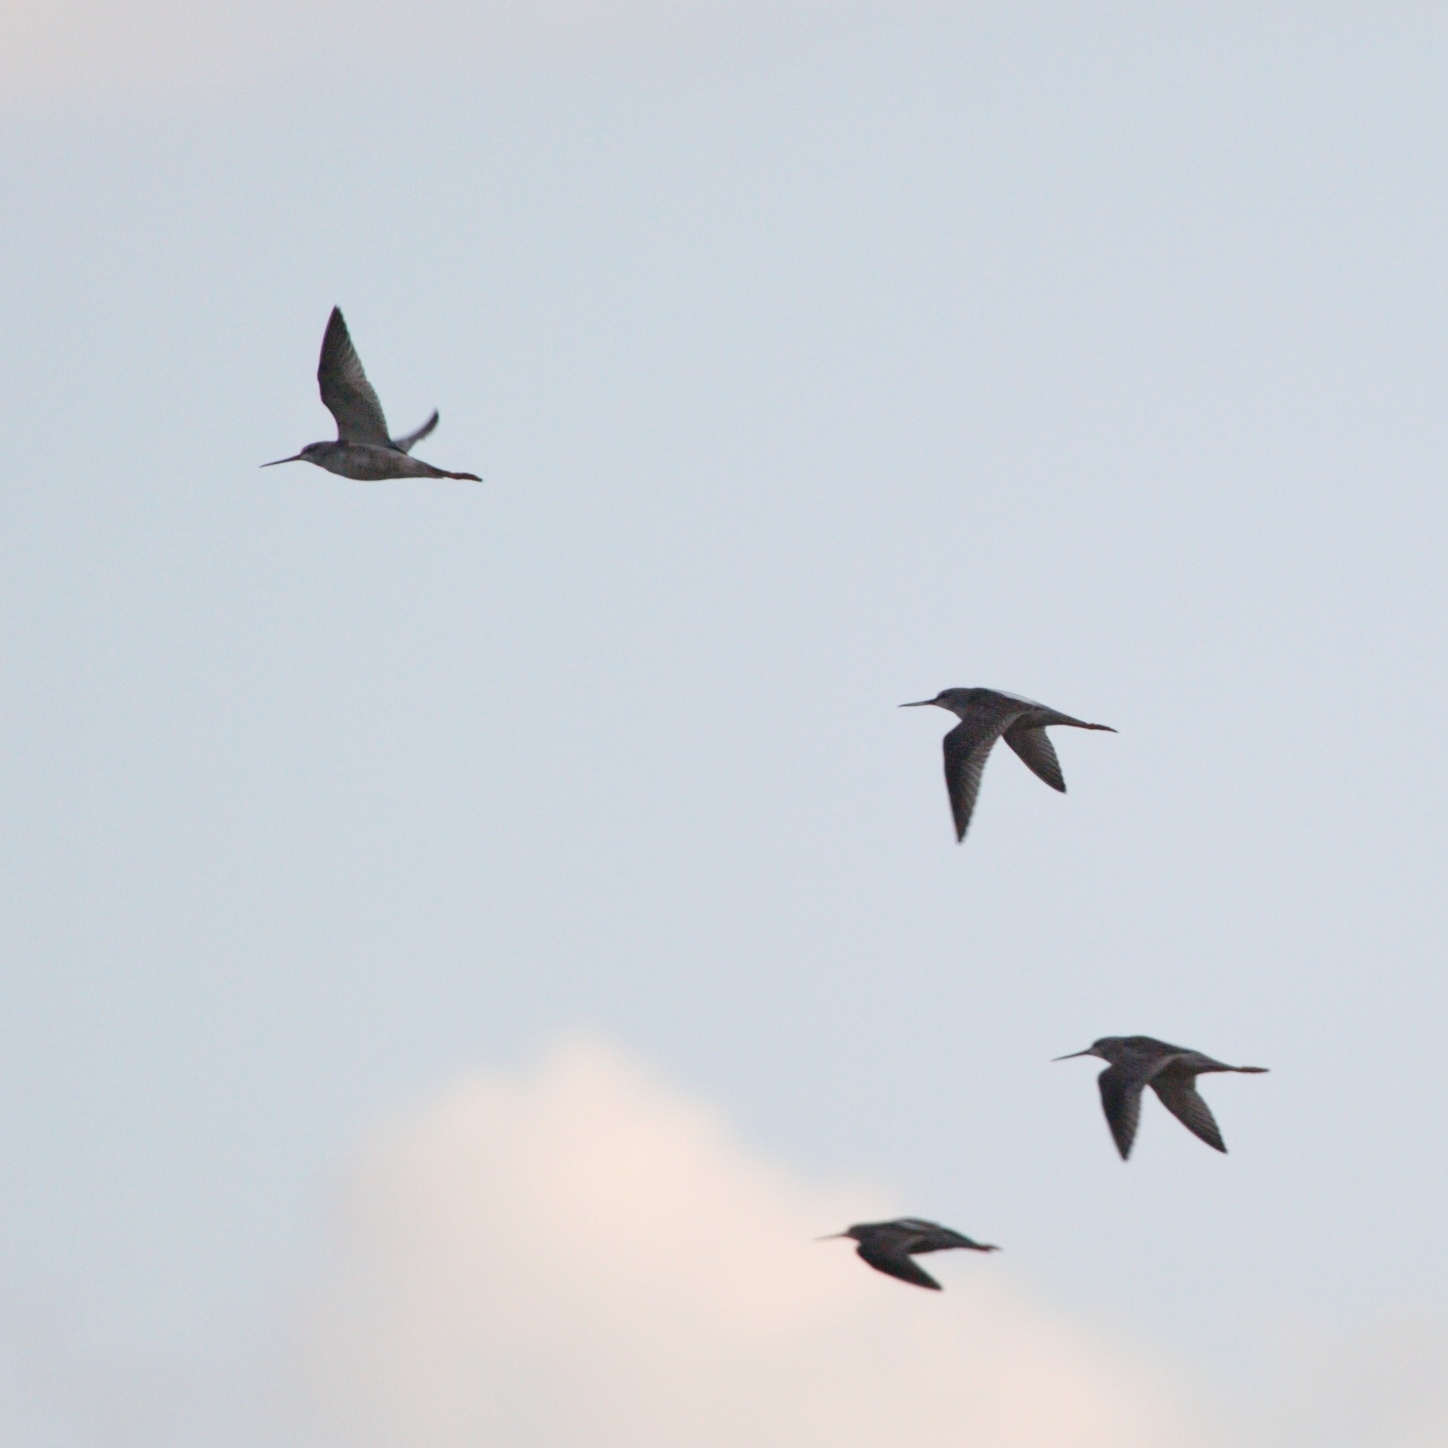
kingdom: Animalia
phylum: Chordata
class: Aves
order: Charadriiformes
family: Scolopacidae
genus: Tringa
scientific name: Tringa erythropus
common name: Spotted redshank
